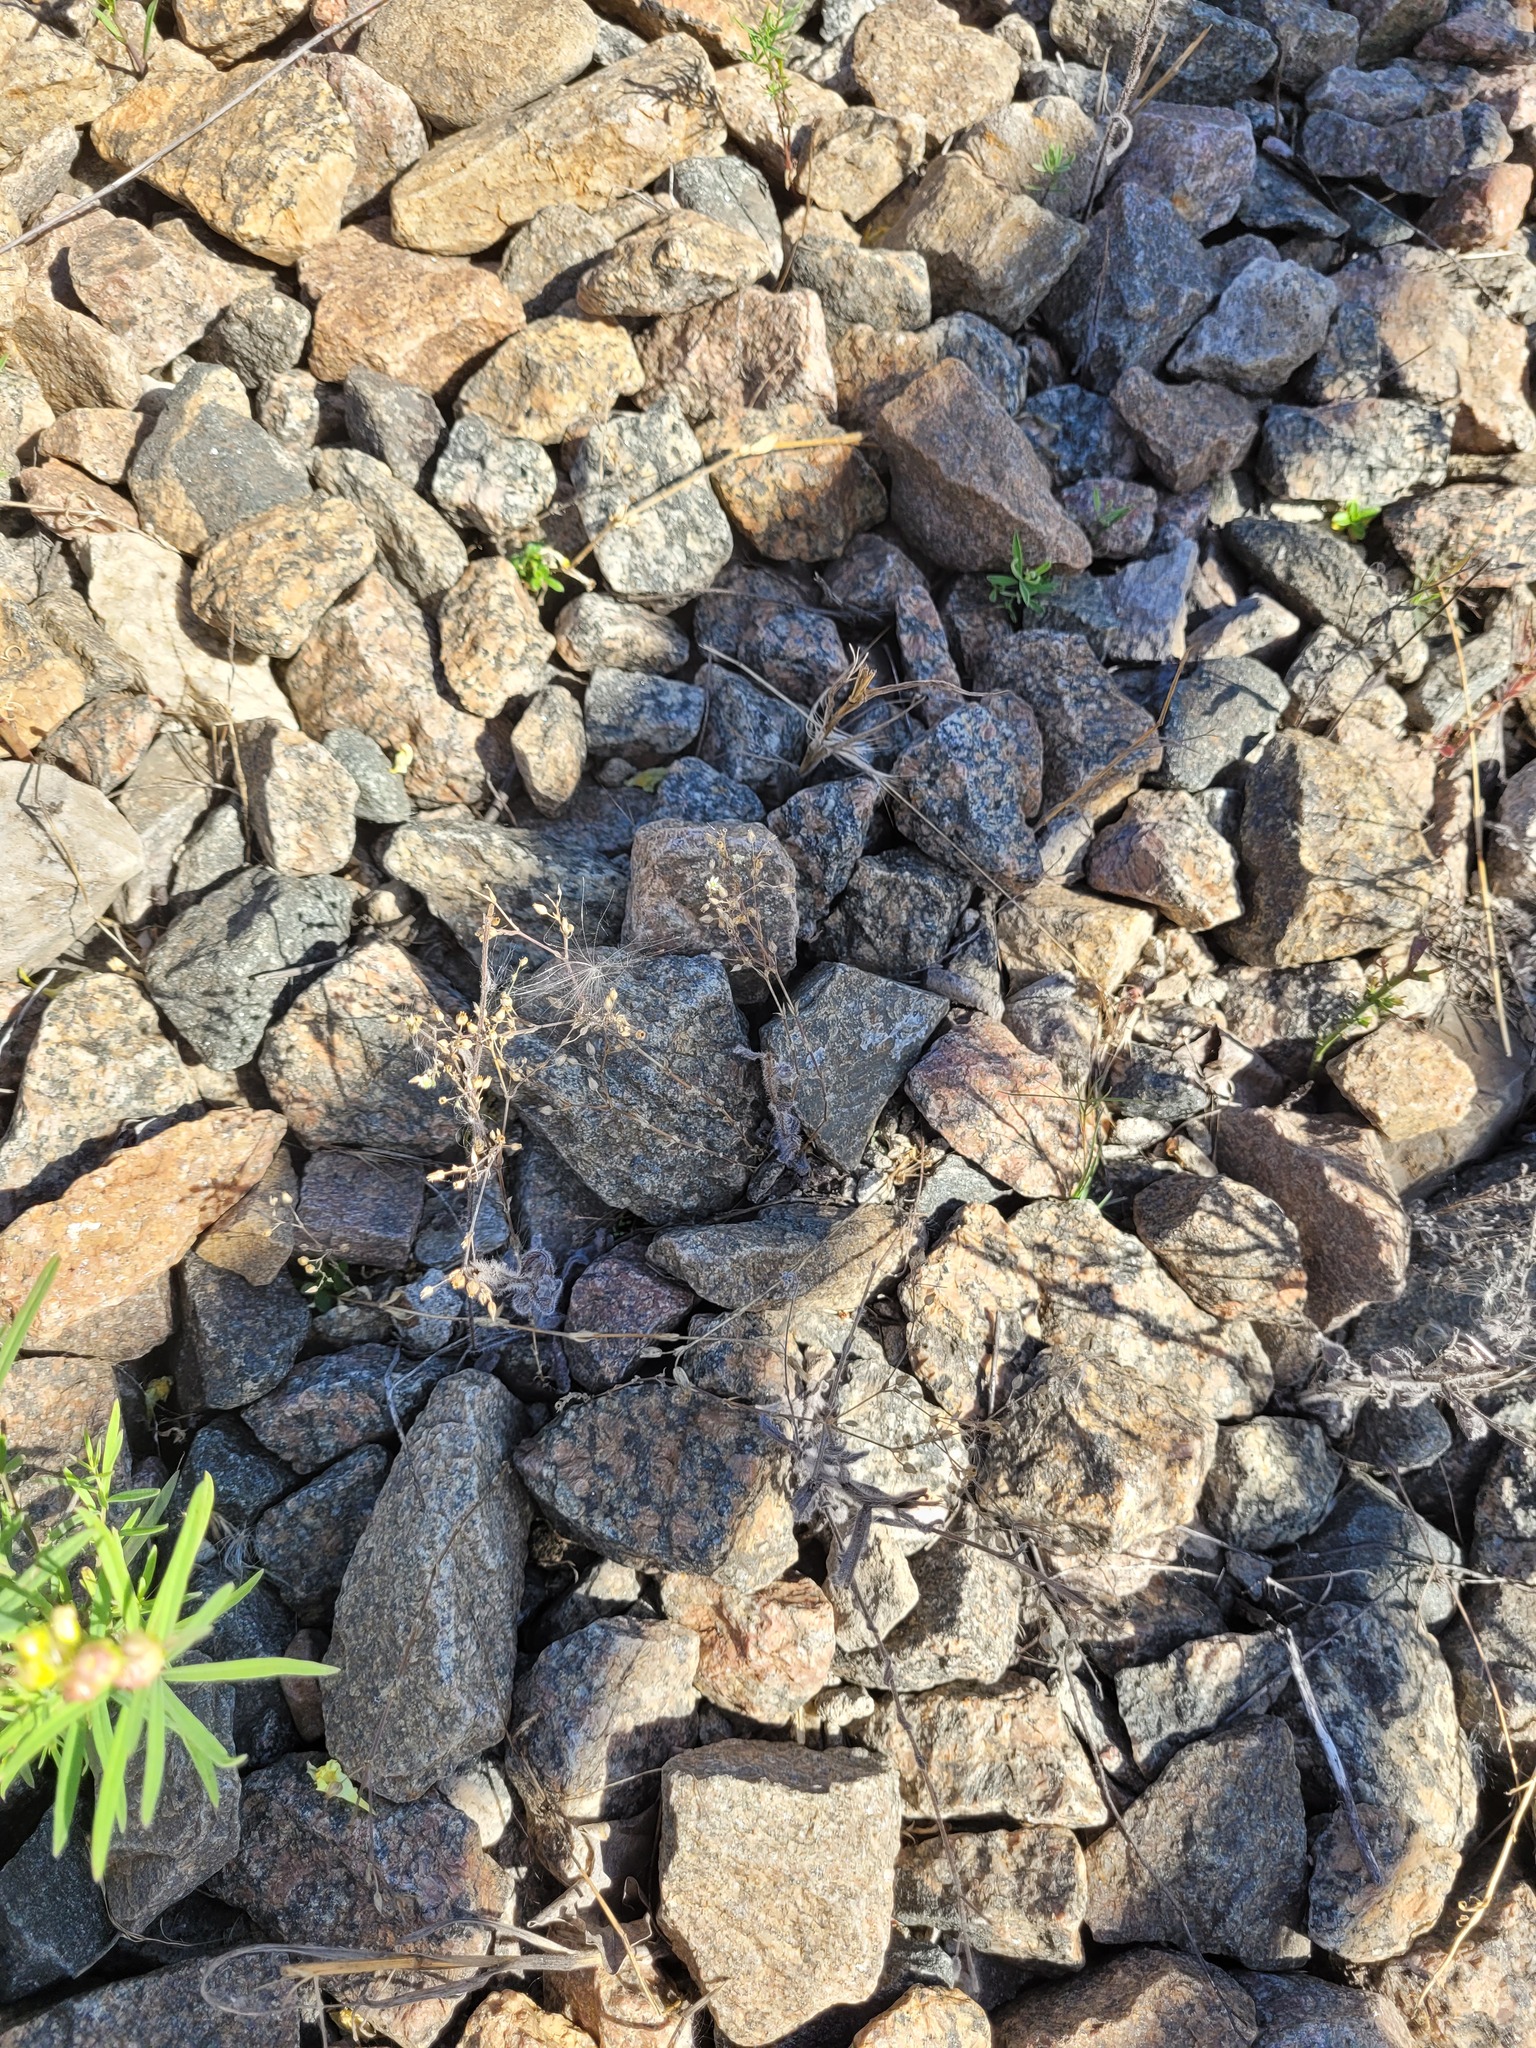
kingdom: Plantae
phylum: Tracheophyta
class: Magnoliopsida
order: Caryophyllales
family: Caryophyllaceae
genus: Arenaria
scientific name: Arenaria serpyllifolia
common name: Thyme-leaved sandwort
